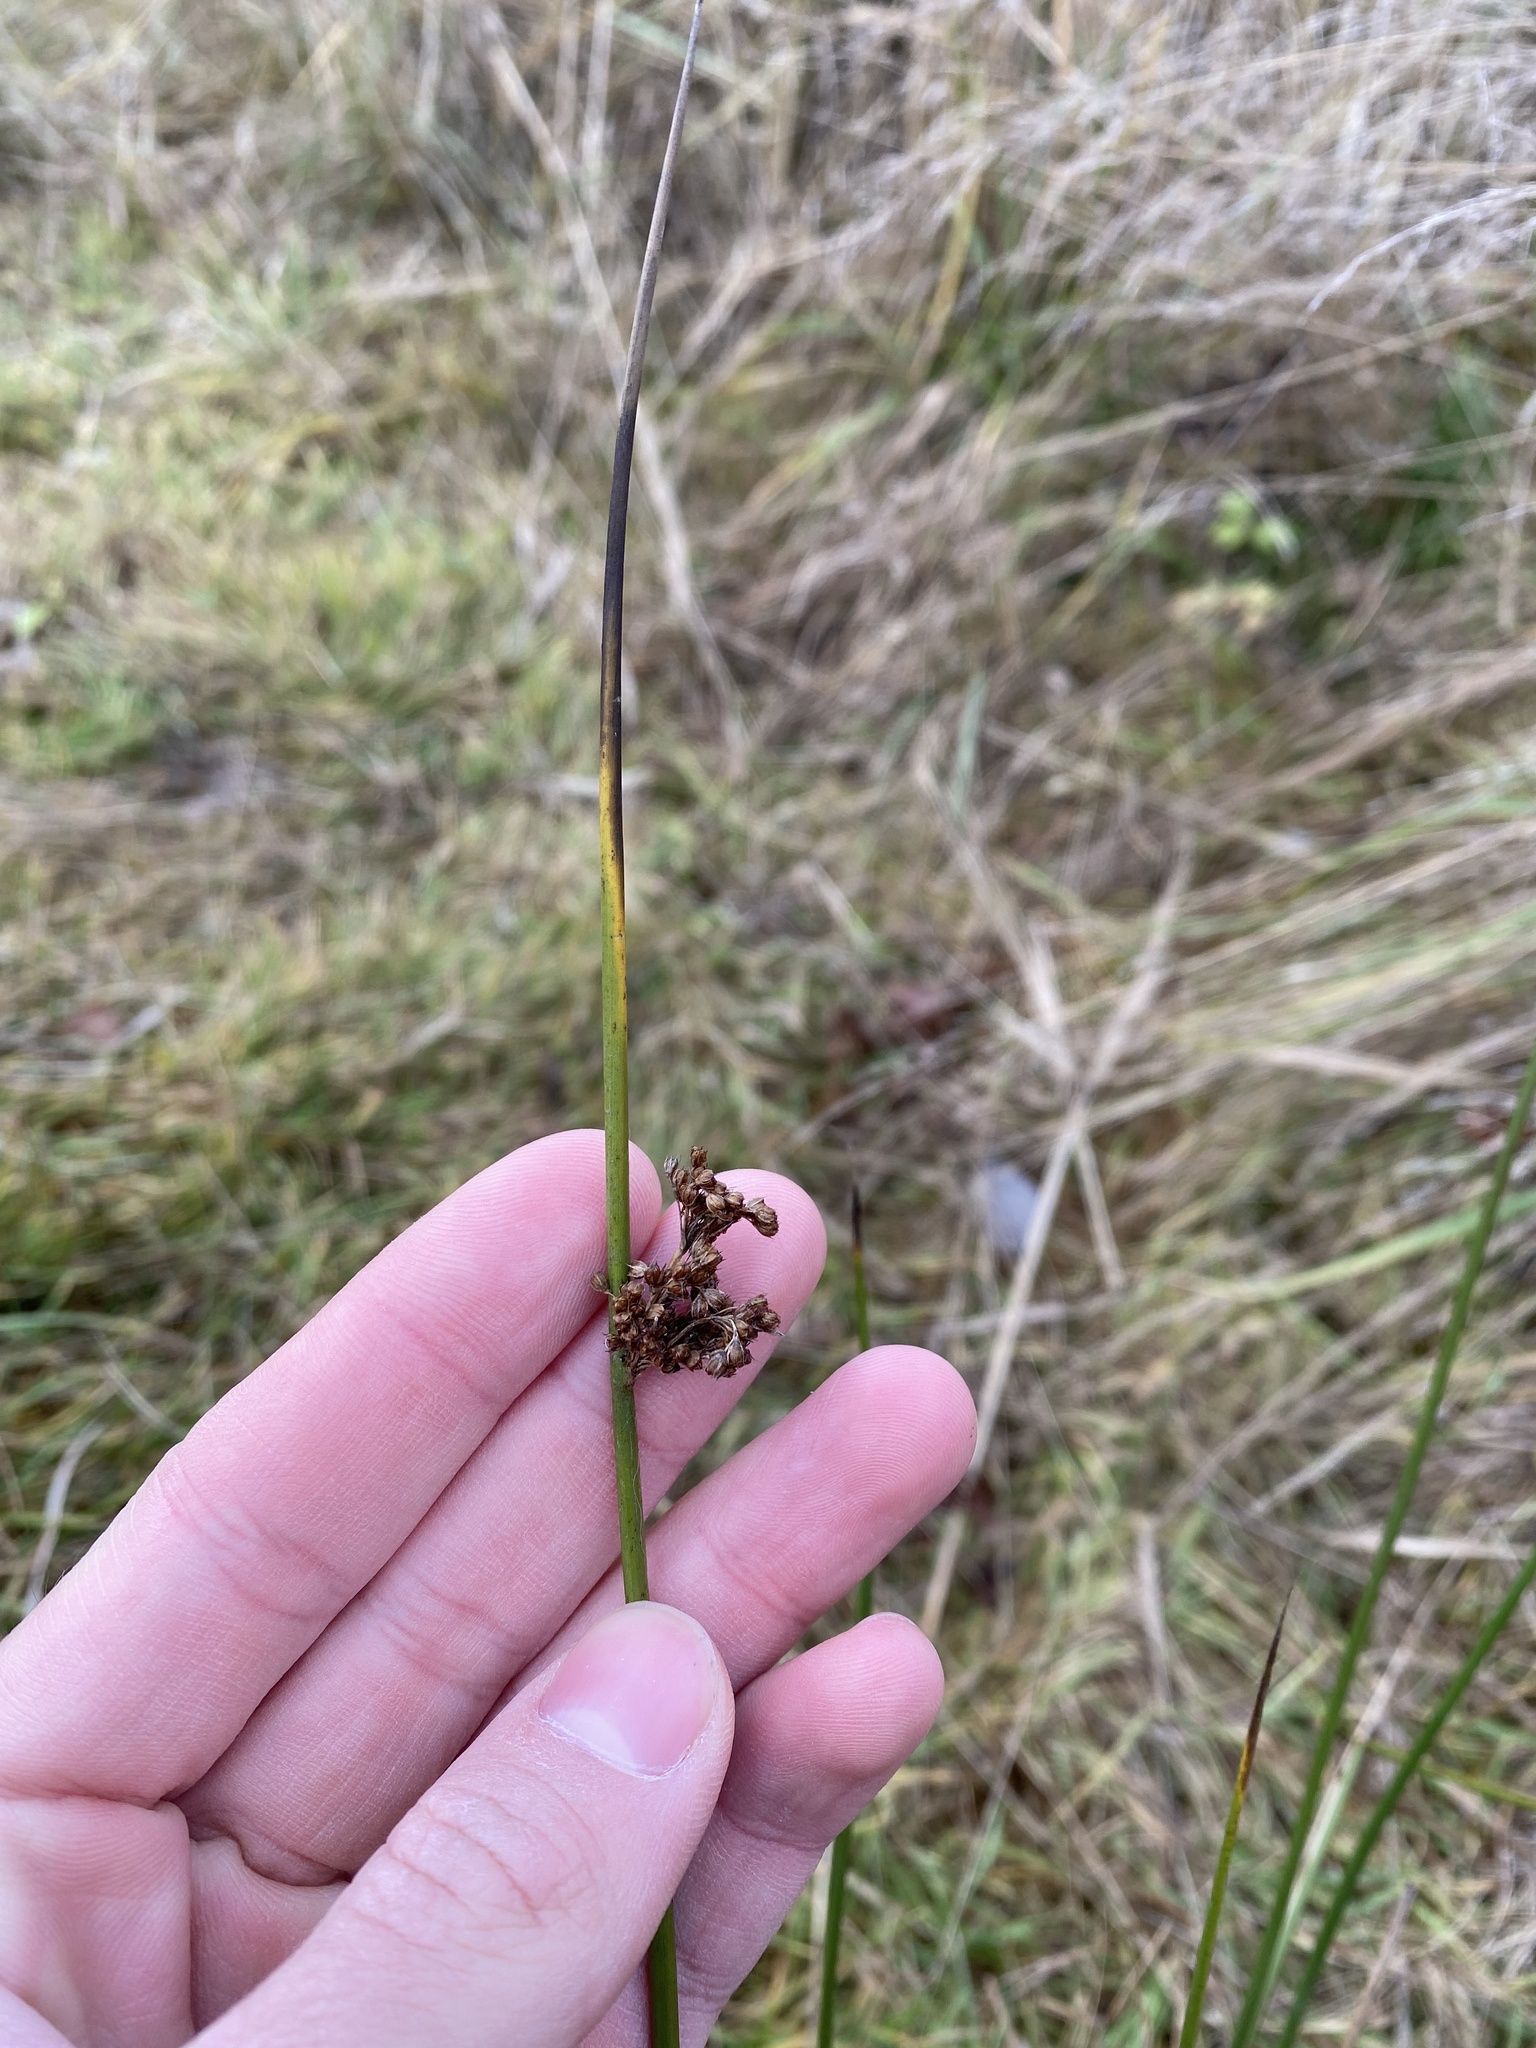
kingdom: Plantae
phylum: Tracheophyta
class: Liliopsida
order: Poales
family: Juncaceae
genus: Juncus
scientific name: Juncus effusus
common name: Soft rush
